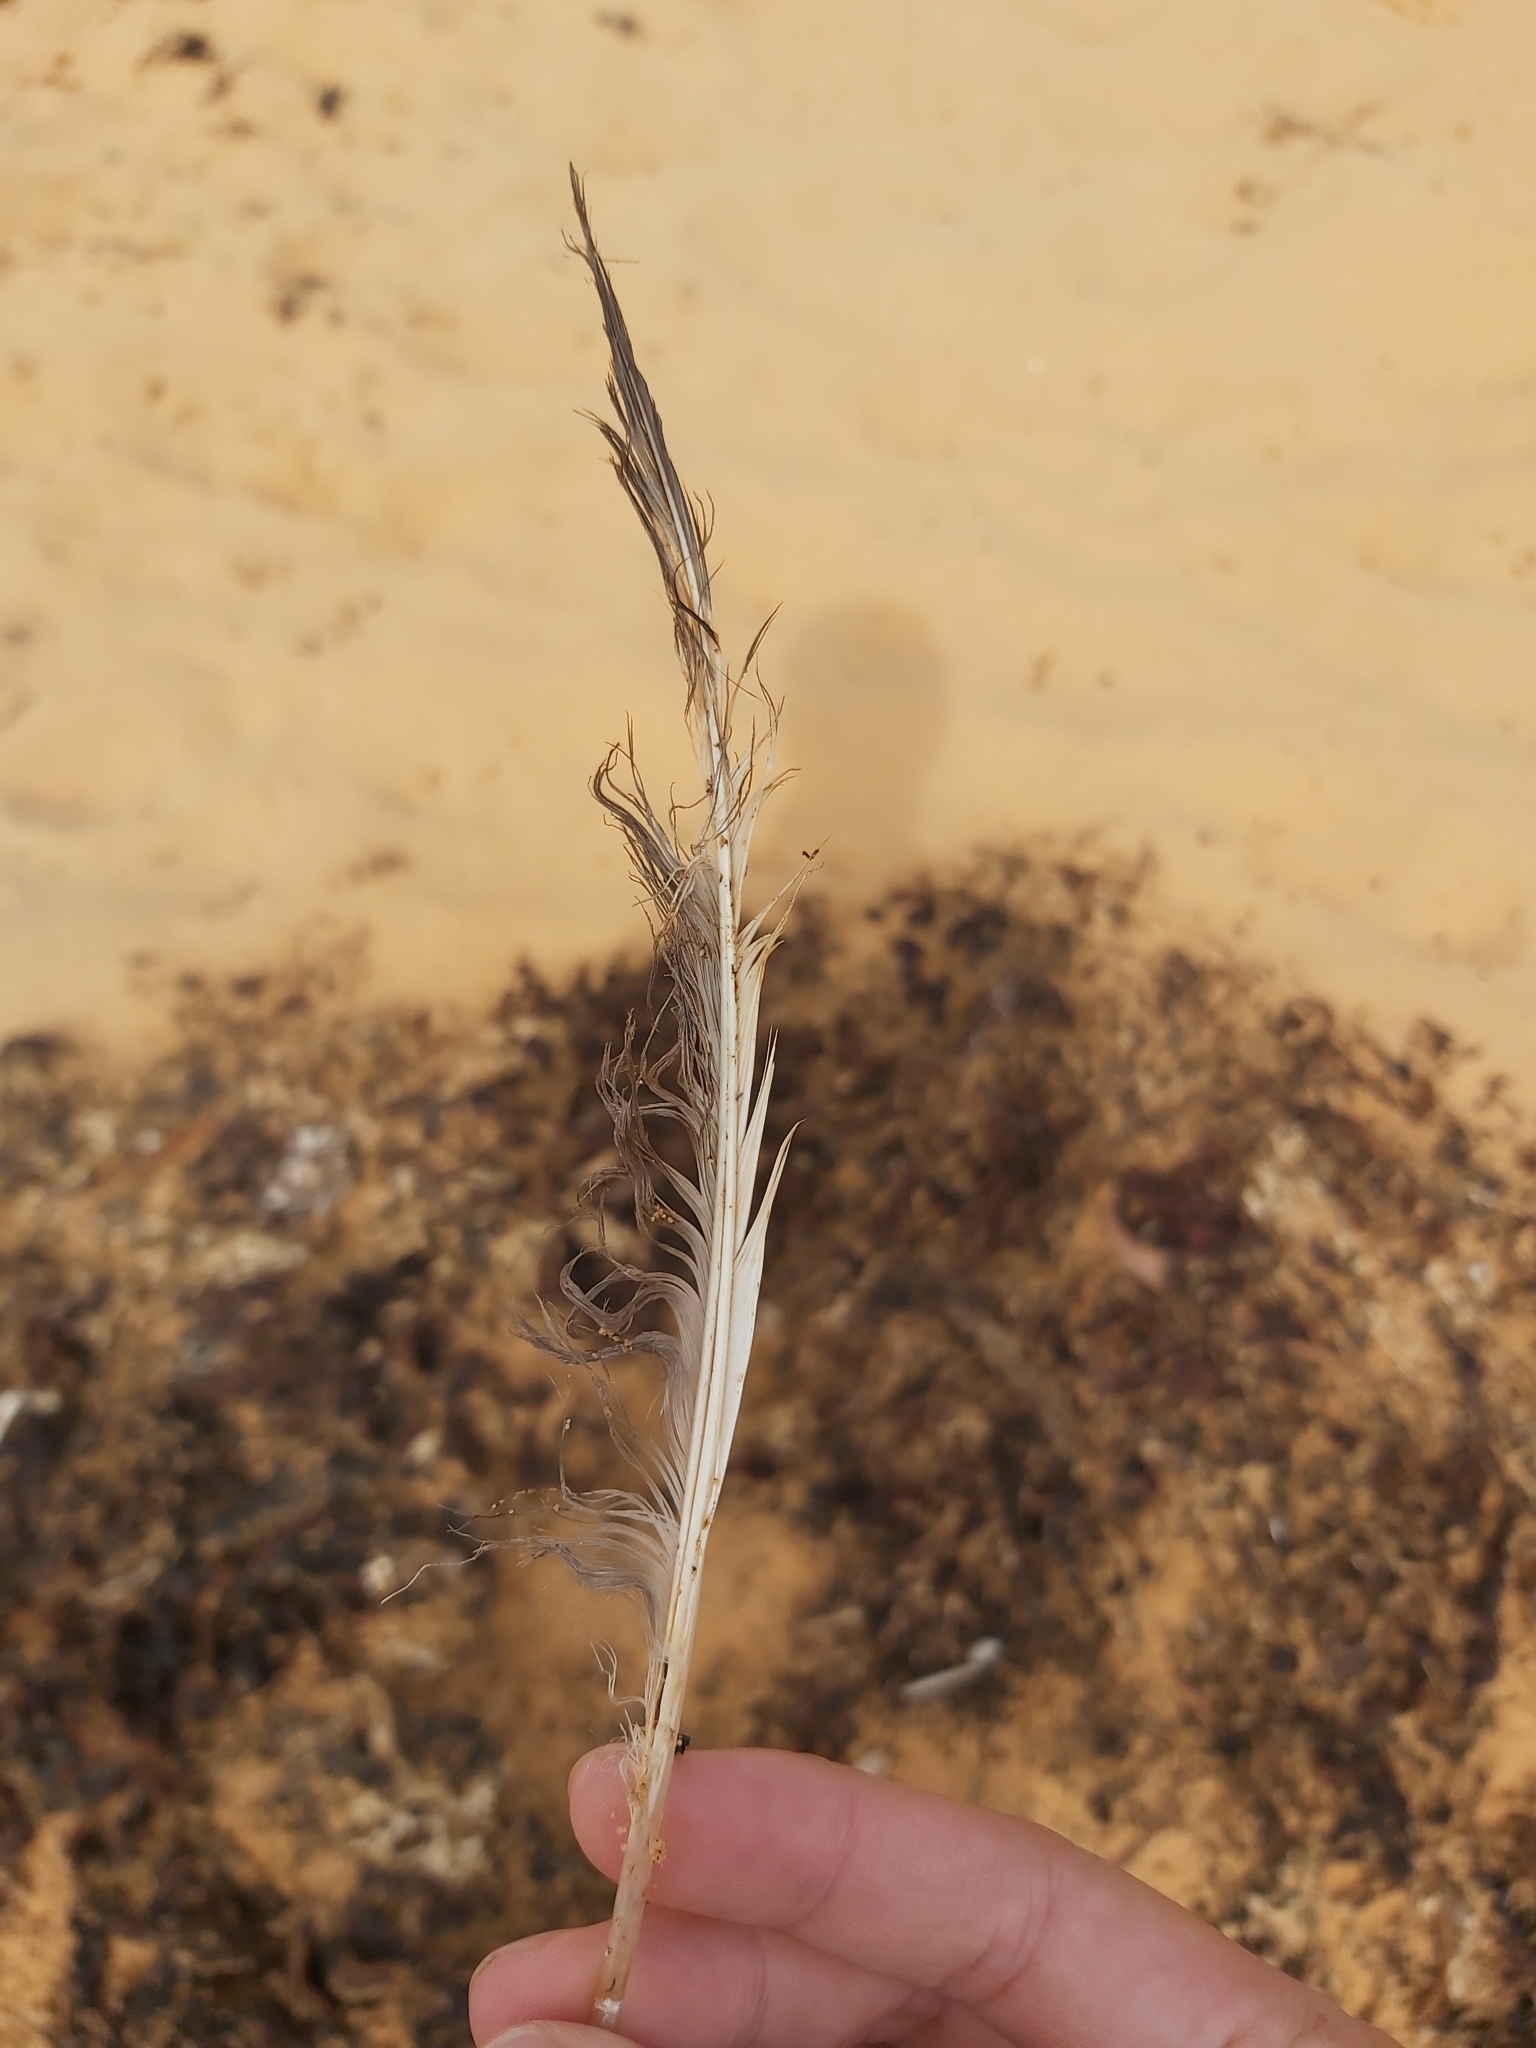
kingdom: Animalia
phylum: Chordata
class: Aves
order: Charadriiformes
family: Laridae
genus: Chroicocephalus
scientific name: Chroicocephalus novaehollandiae
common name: Silver gull
